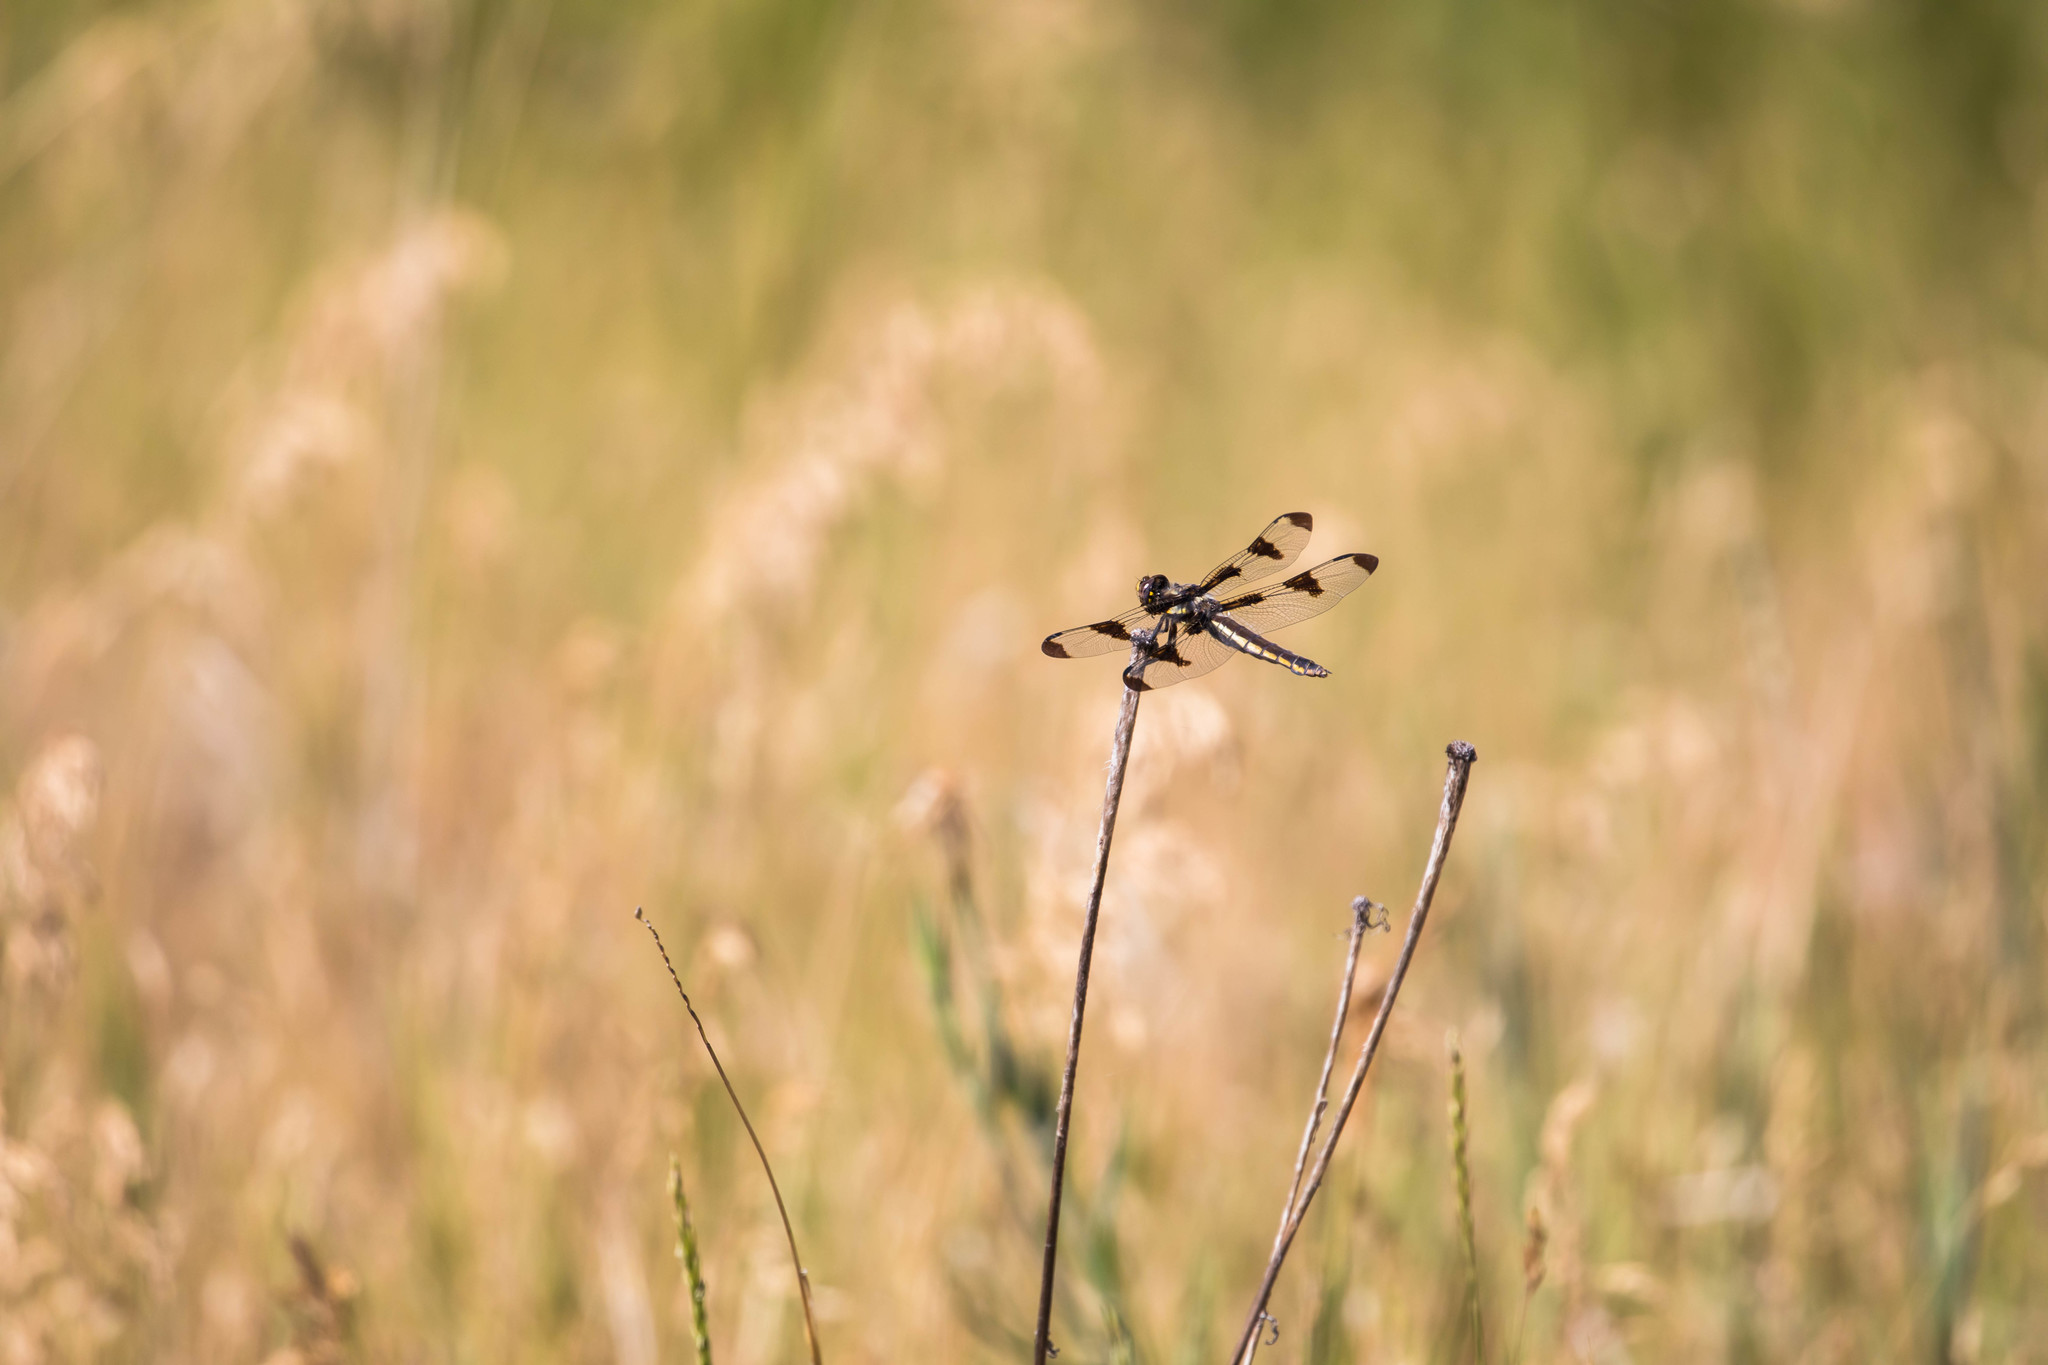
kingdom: Animalia
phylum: Arthropoda
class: Insecta
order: Odonata
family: Libellulidae
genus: Libellula
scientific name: Libellula pulchella
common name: Twelve-spotted skimmer
